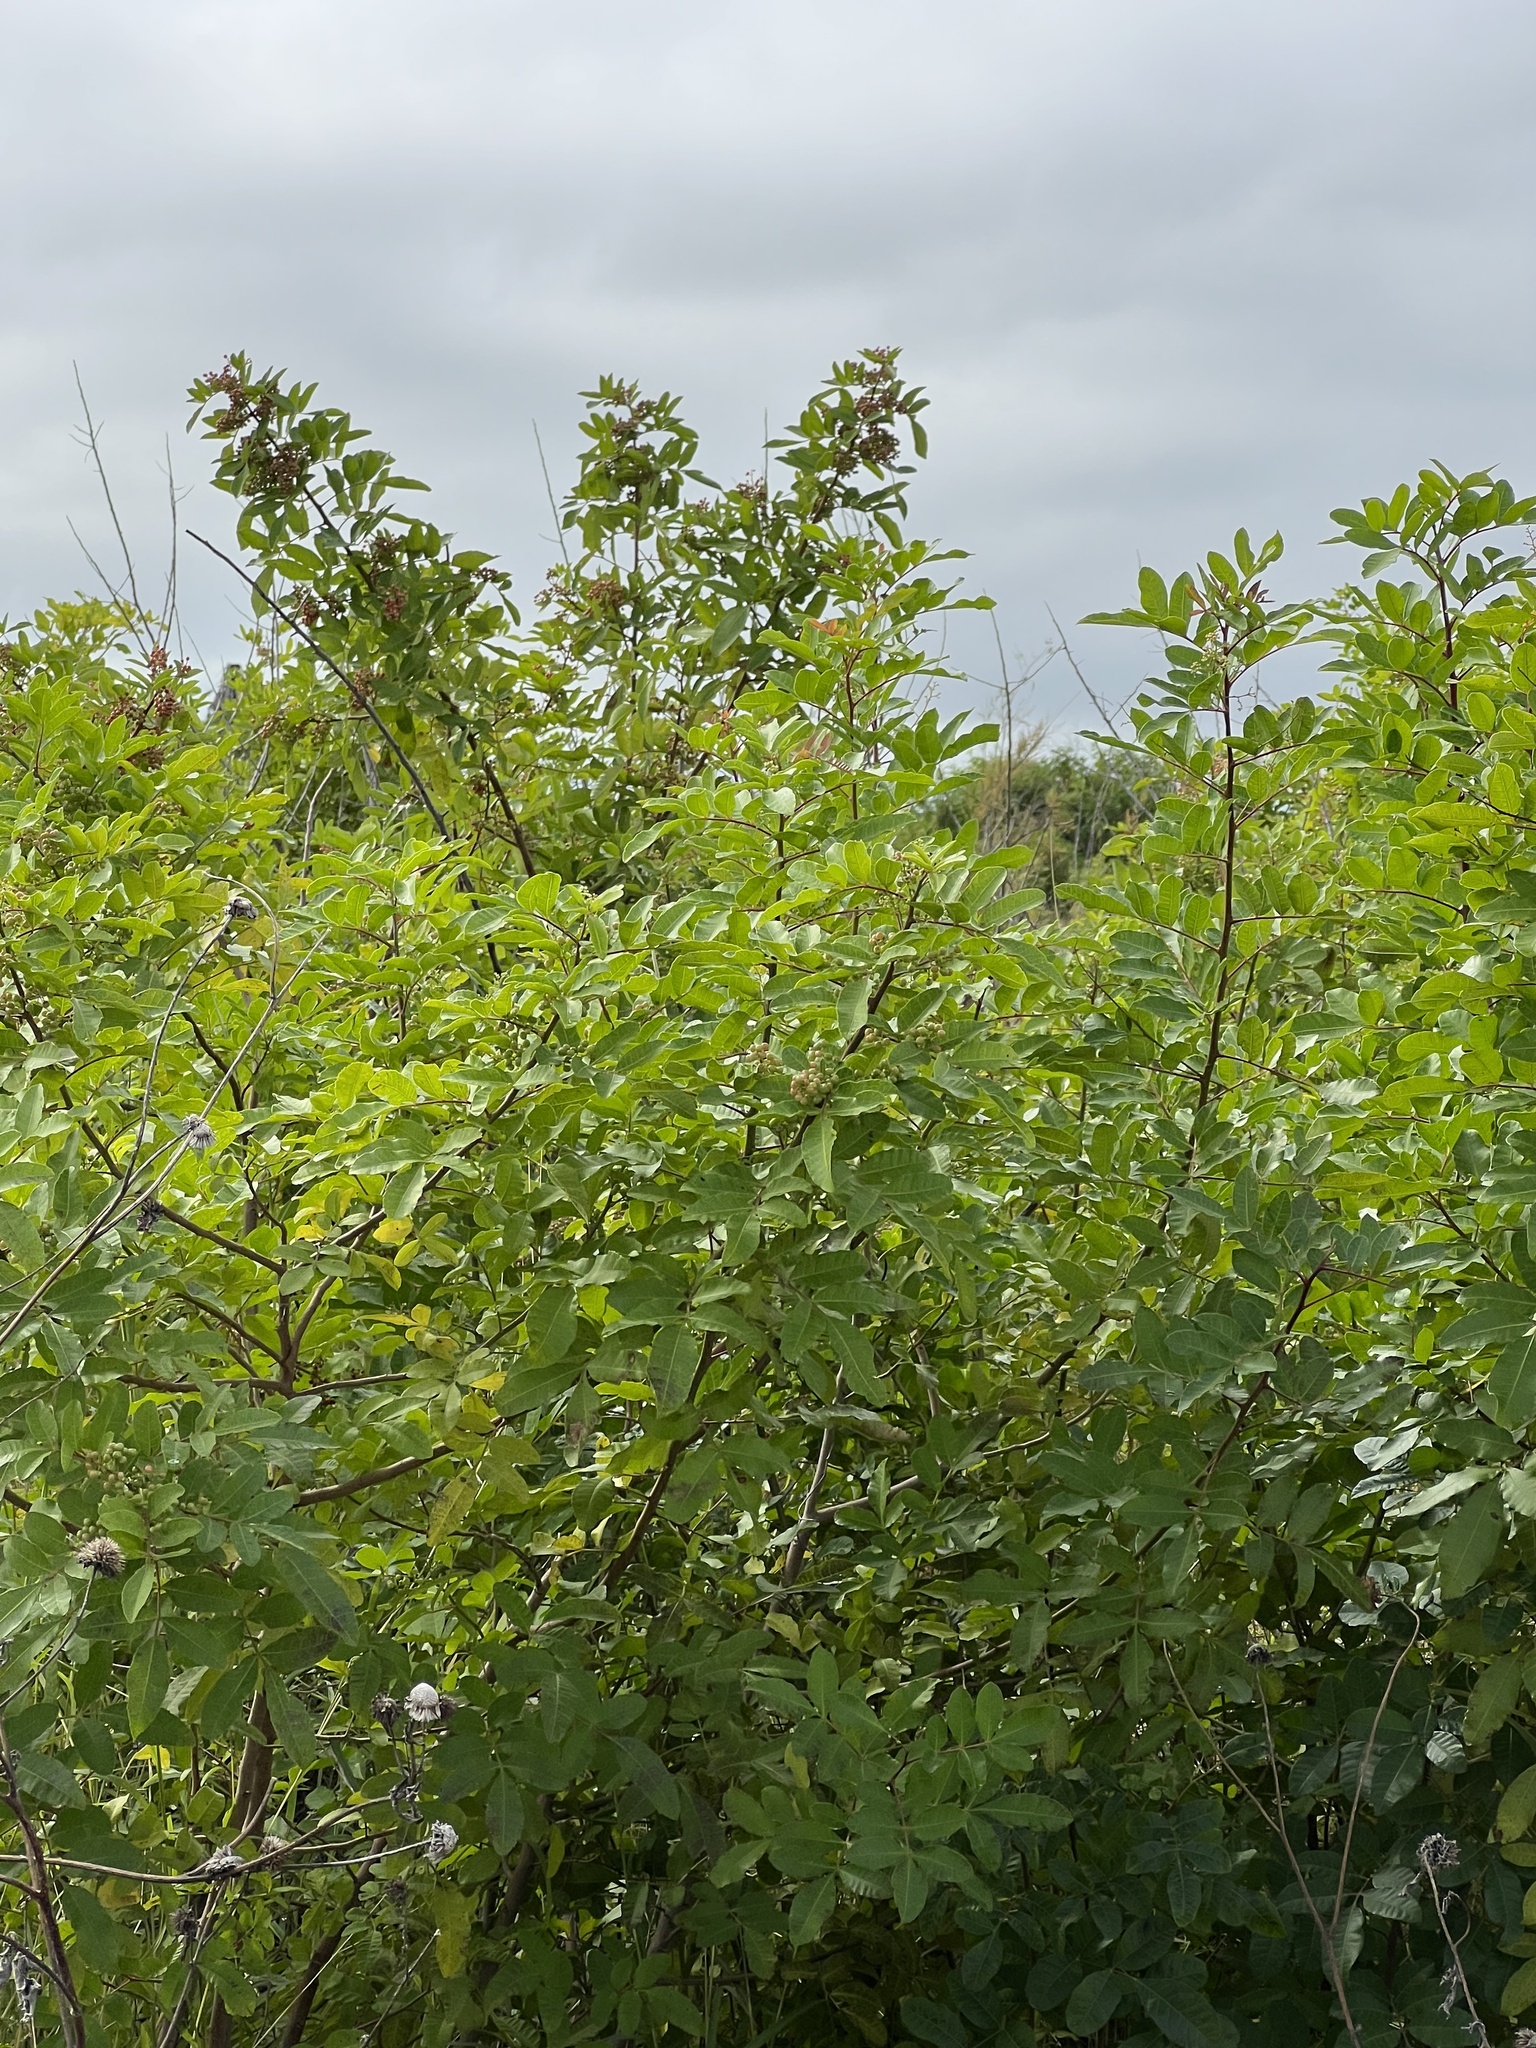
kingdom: Plantae
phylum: Tracheophyta
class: Magnoliopsida
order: Sapindales
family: Anacardiaceae
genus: Schinus
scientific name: Schinus terebinthifolia
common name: Brazilian peppertree
